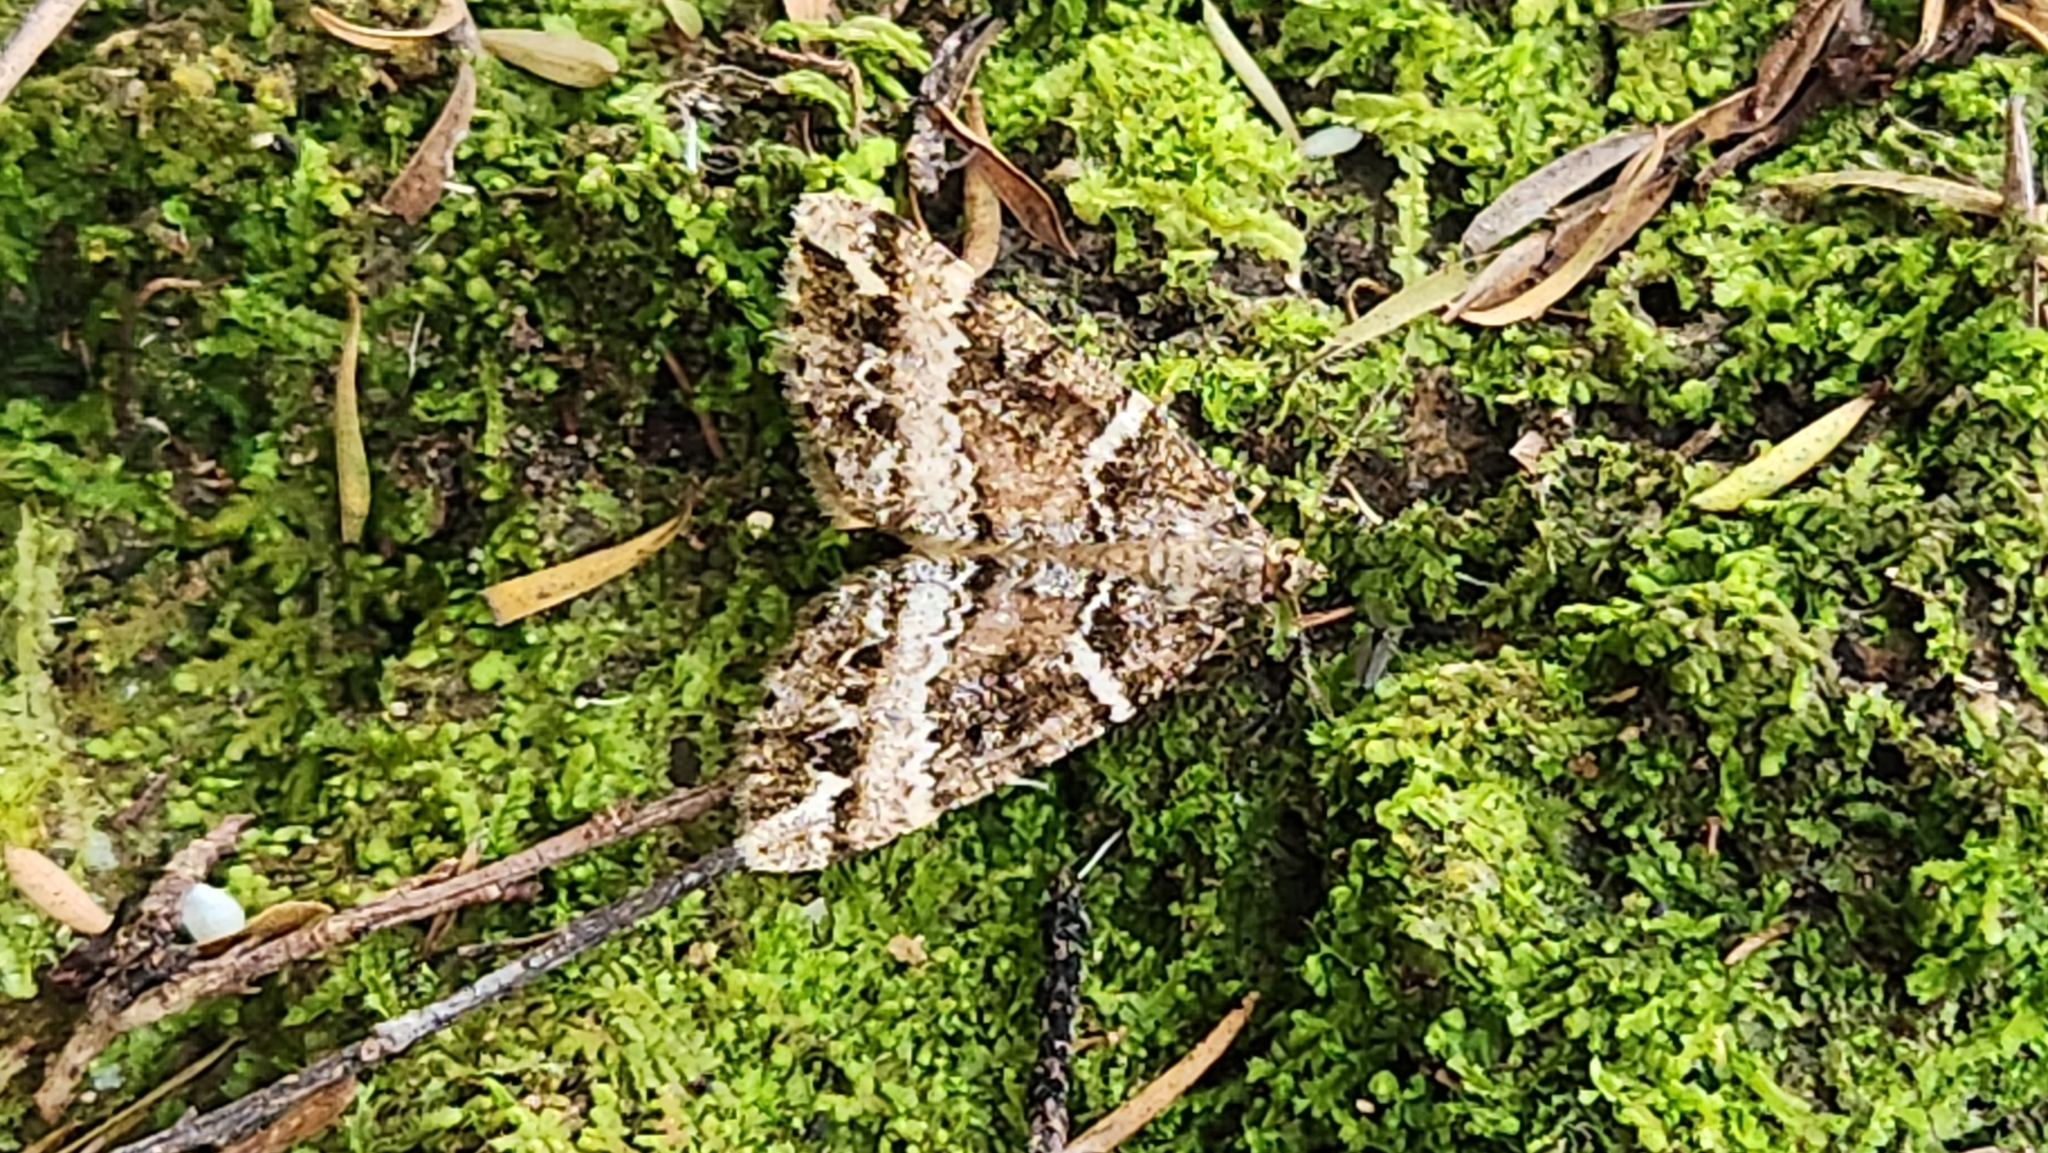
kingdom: Animalia
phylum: Arthropoda
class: Insecta
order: Lepidoptera
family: Geometridae
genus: Pseudocoremia
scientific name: Pseudocoremia
